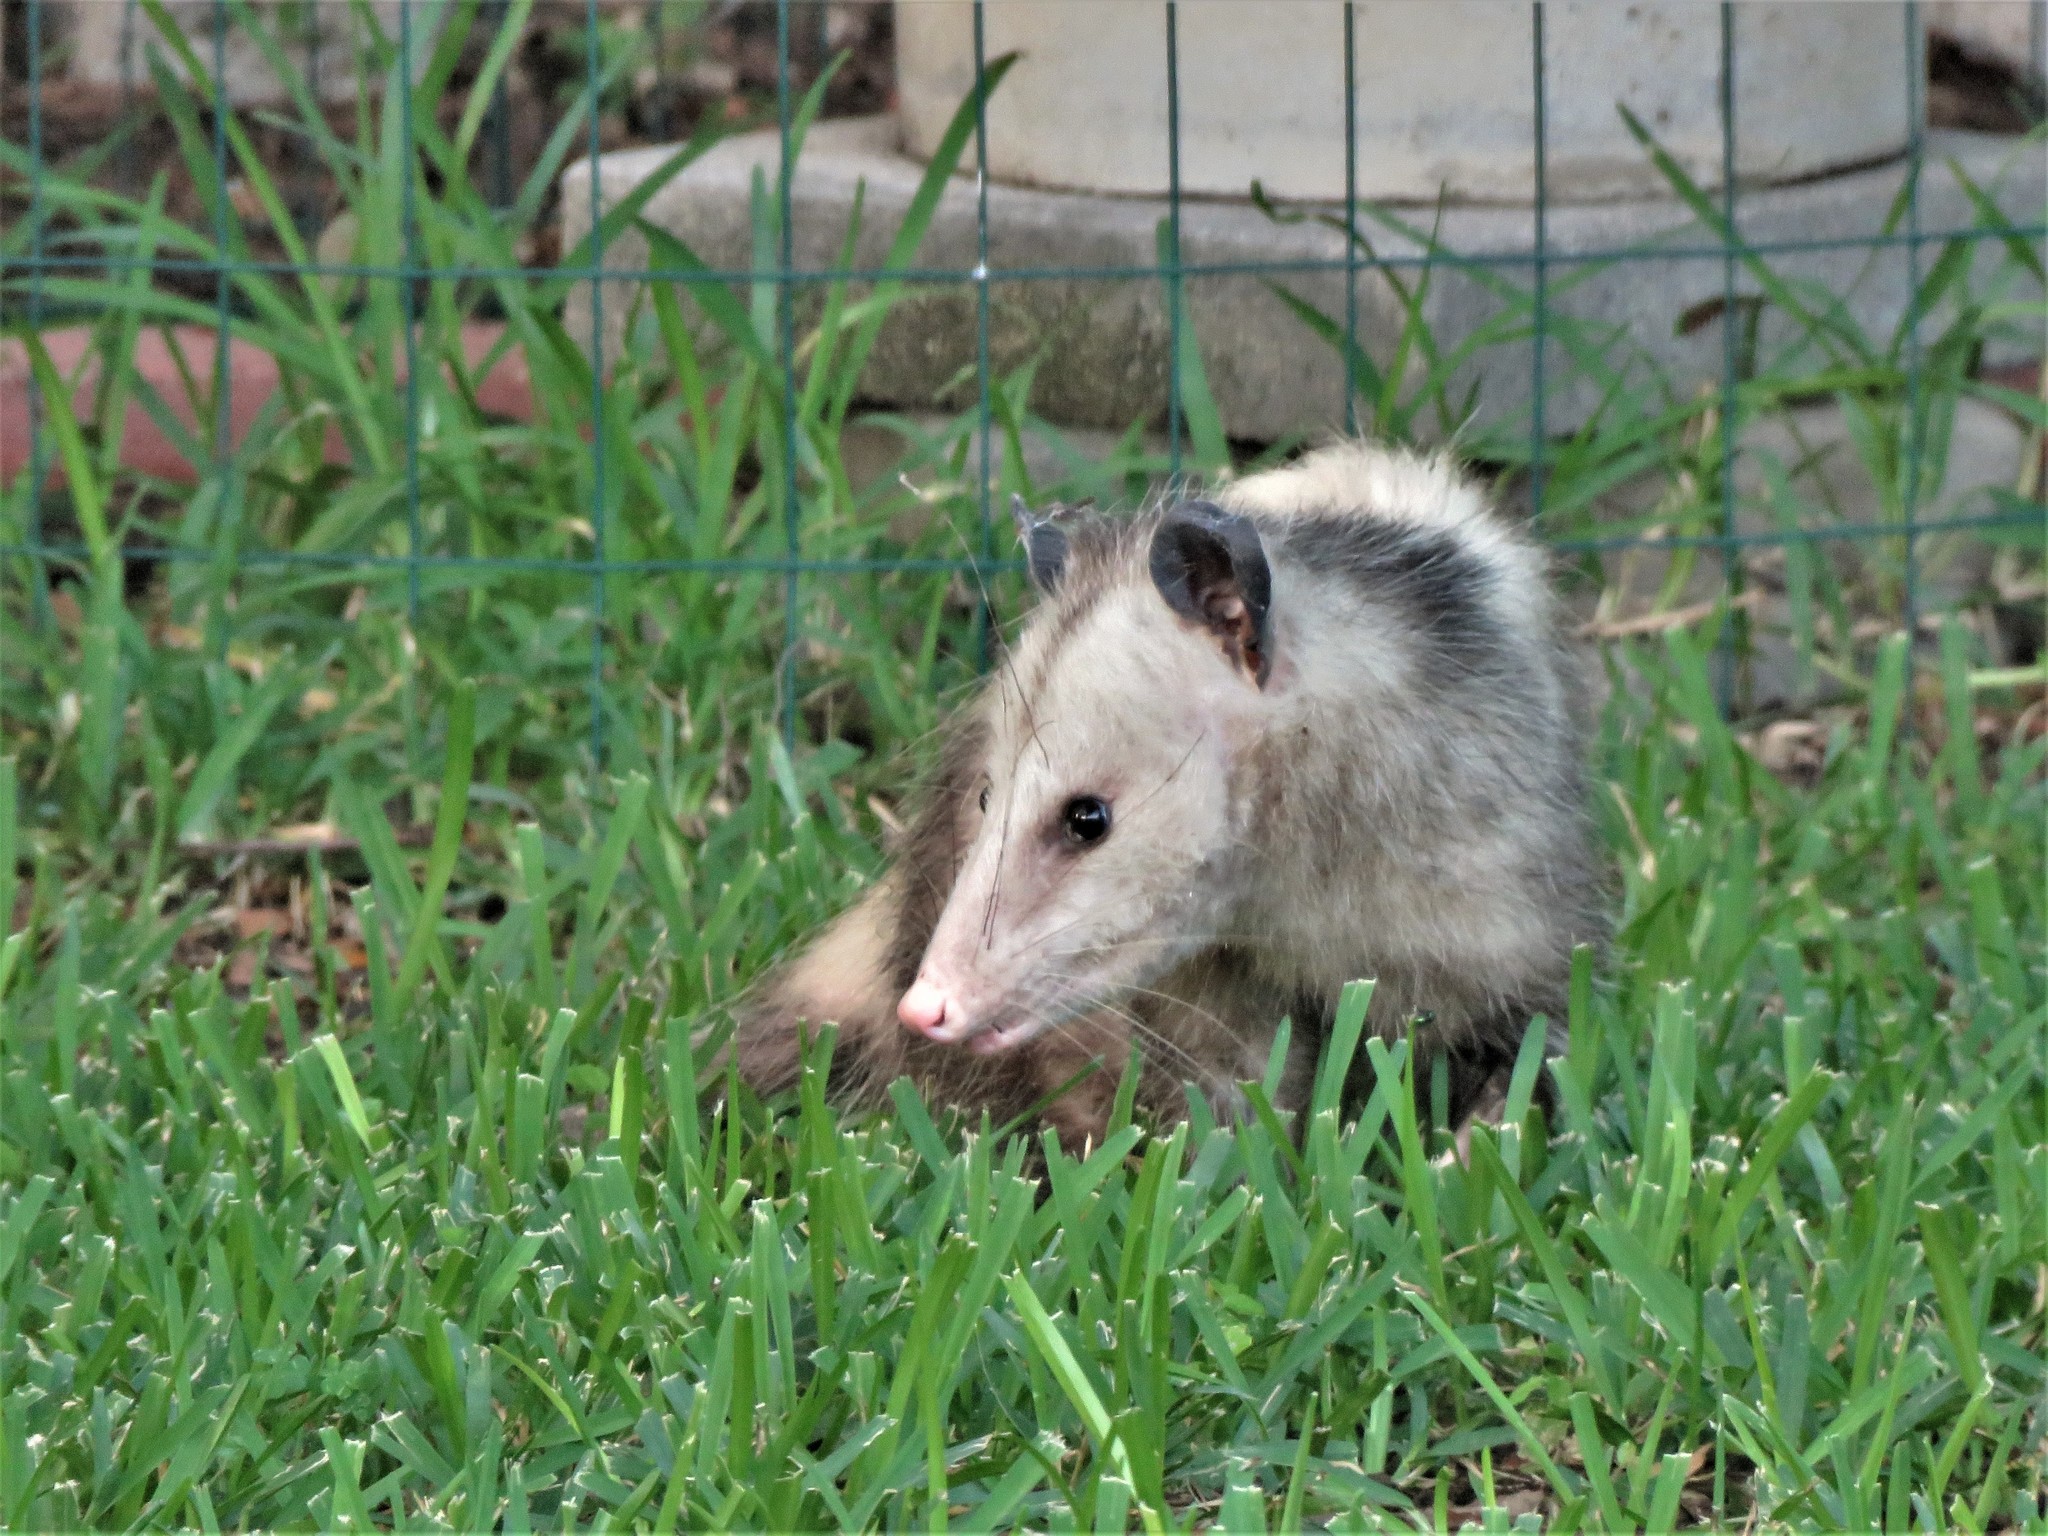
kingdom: Animalia
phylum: Chordata
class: Mammalia
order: Didelphimorphia
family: Didelphidae
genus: Didelphis
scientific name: Didelphis virginiana
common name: Virginia opossum
